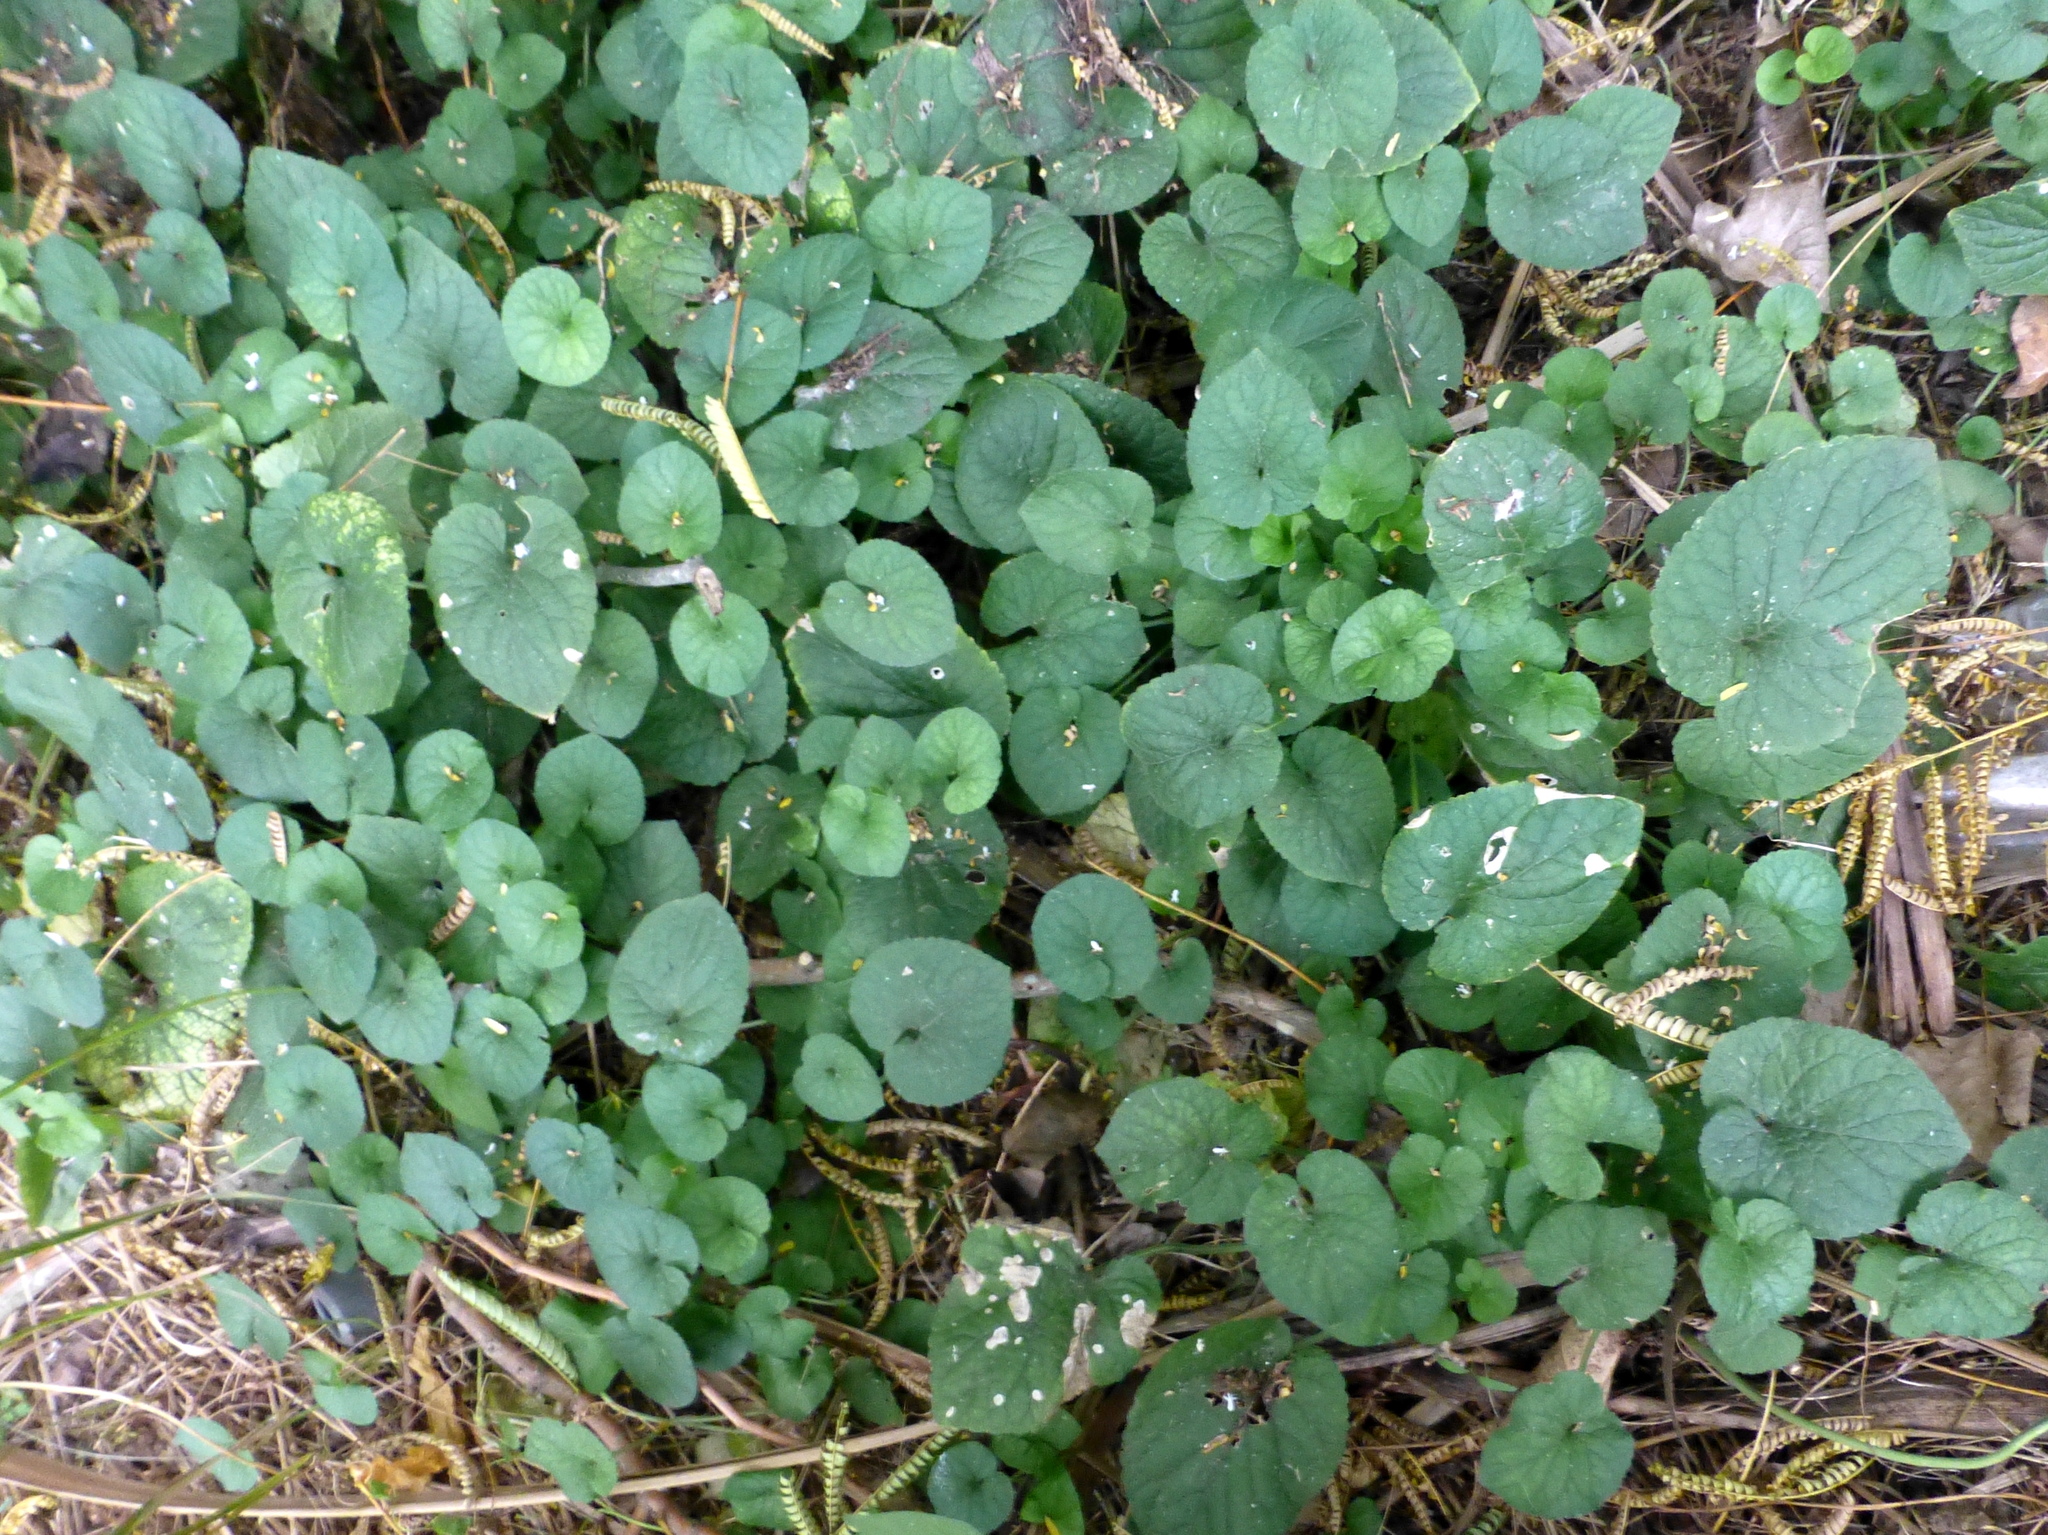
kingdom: Plantae
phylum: Tracheophyta
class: Magnoliopsida
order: Malpighiales
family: Violaceae
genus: Viola
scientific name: Viola riviniana
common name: Common dog-violet
